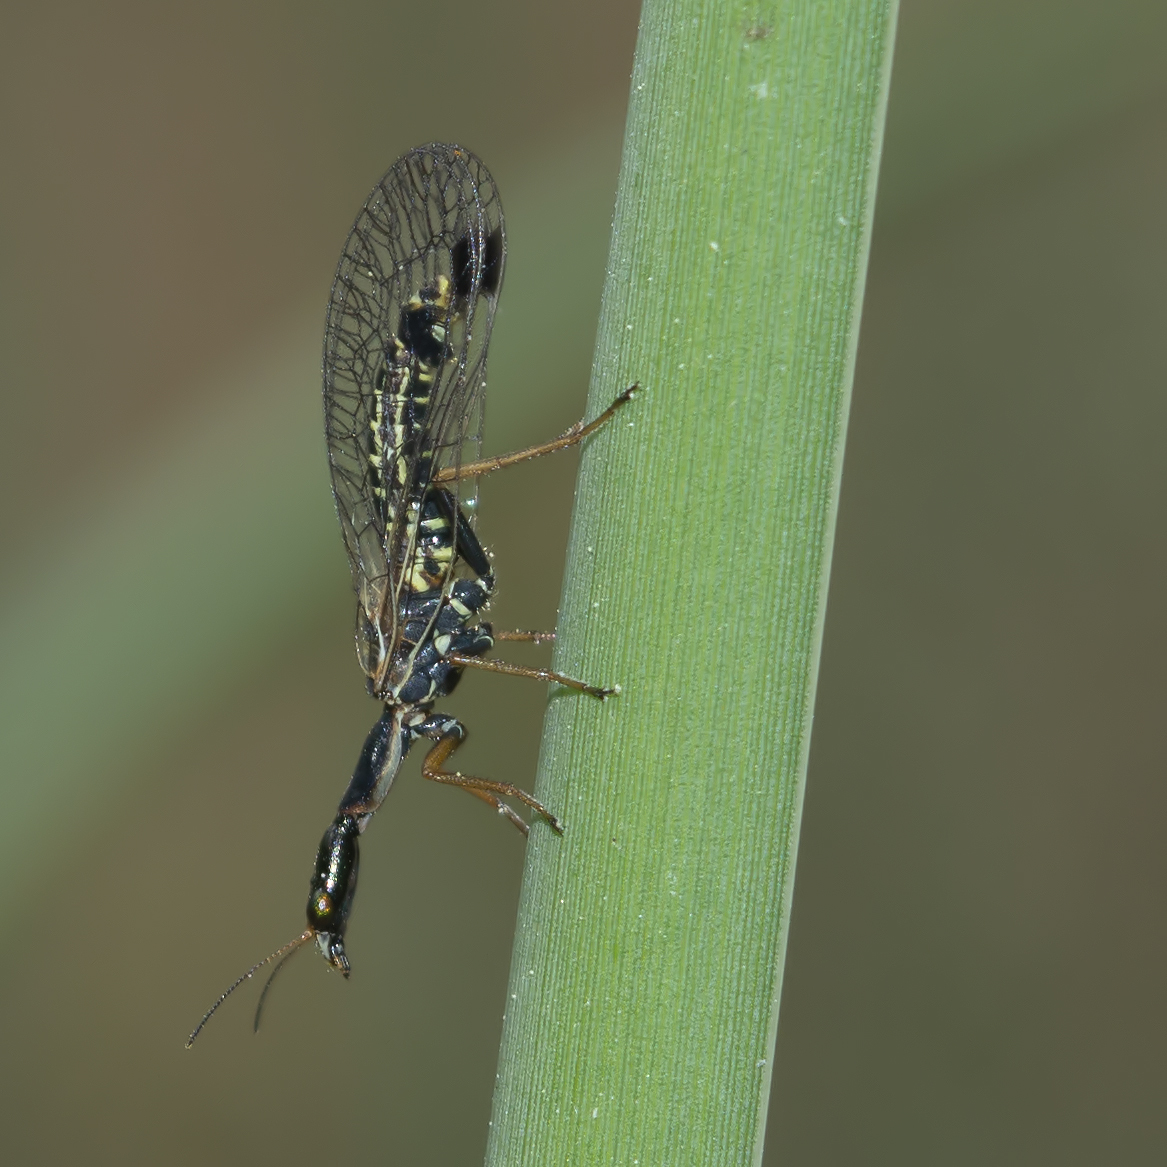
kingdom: Animalia
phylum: Arthropoda
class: Insecta
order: Raphidioptera
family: Raphidiidae
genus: Raphidia
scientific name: Raphidia mediterranea
